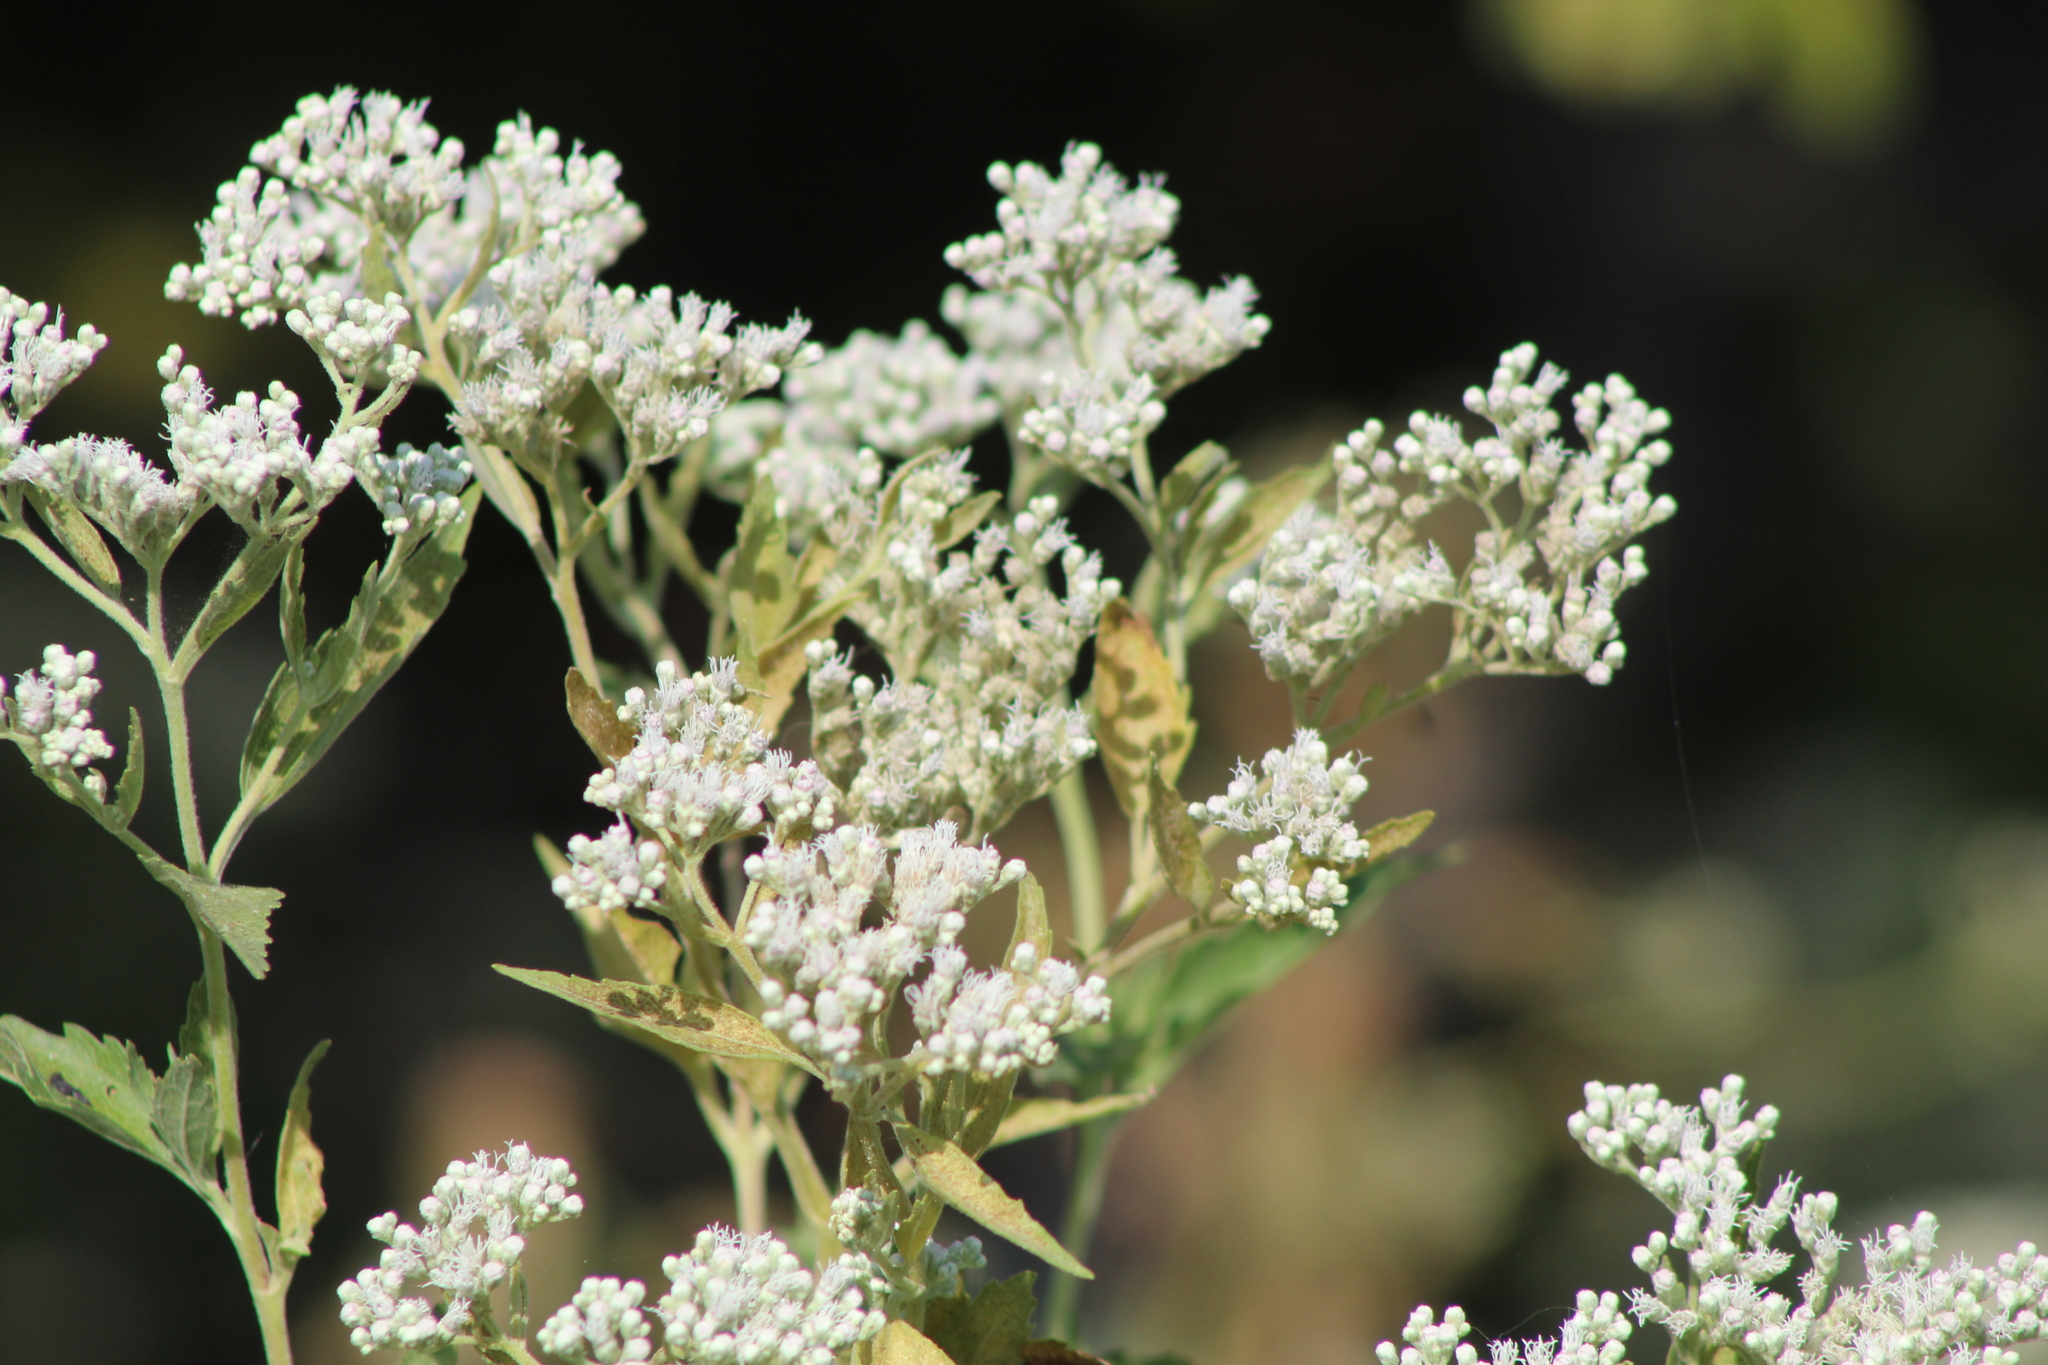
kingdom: Plantae
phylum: Tracheophyta
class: Magnoliopsida
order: Asterales
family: Asteraceae
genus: Eupatorium
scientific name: Eupatorium serotinum
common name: Late boneset
